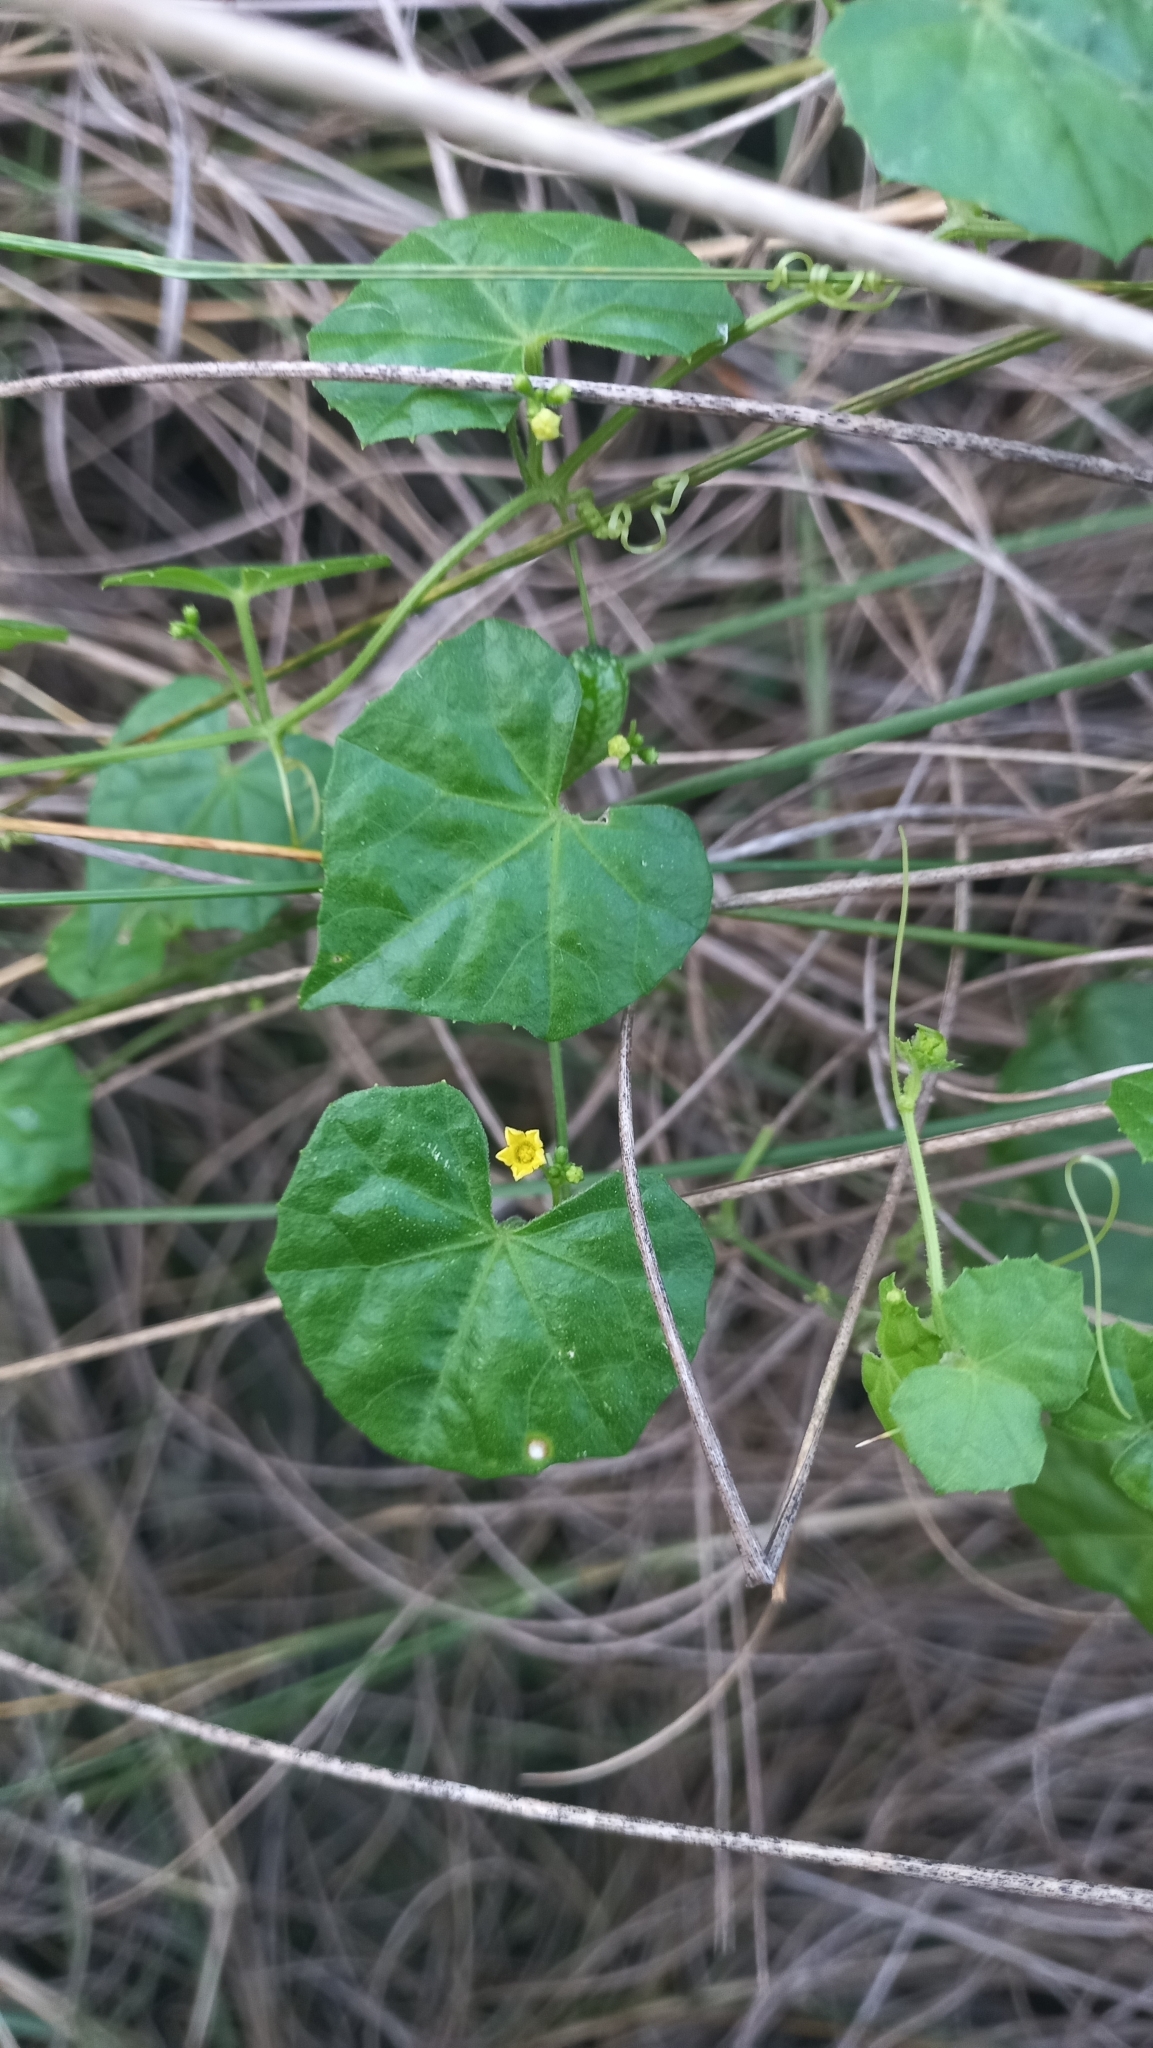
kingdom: Plantae
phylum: Tracheophyta
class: Magnoliopsida
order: Cucurbitales
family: Cucurbitaceae
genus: Melothria
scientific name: Melothria pendula
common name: Creeping-cucumber
